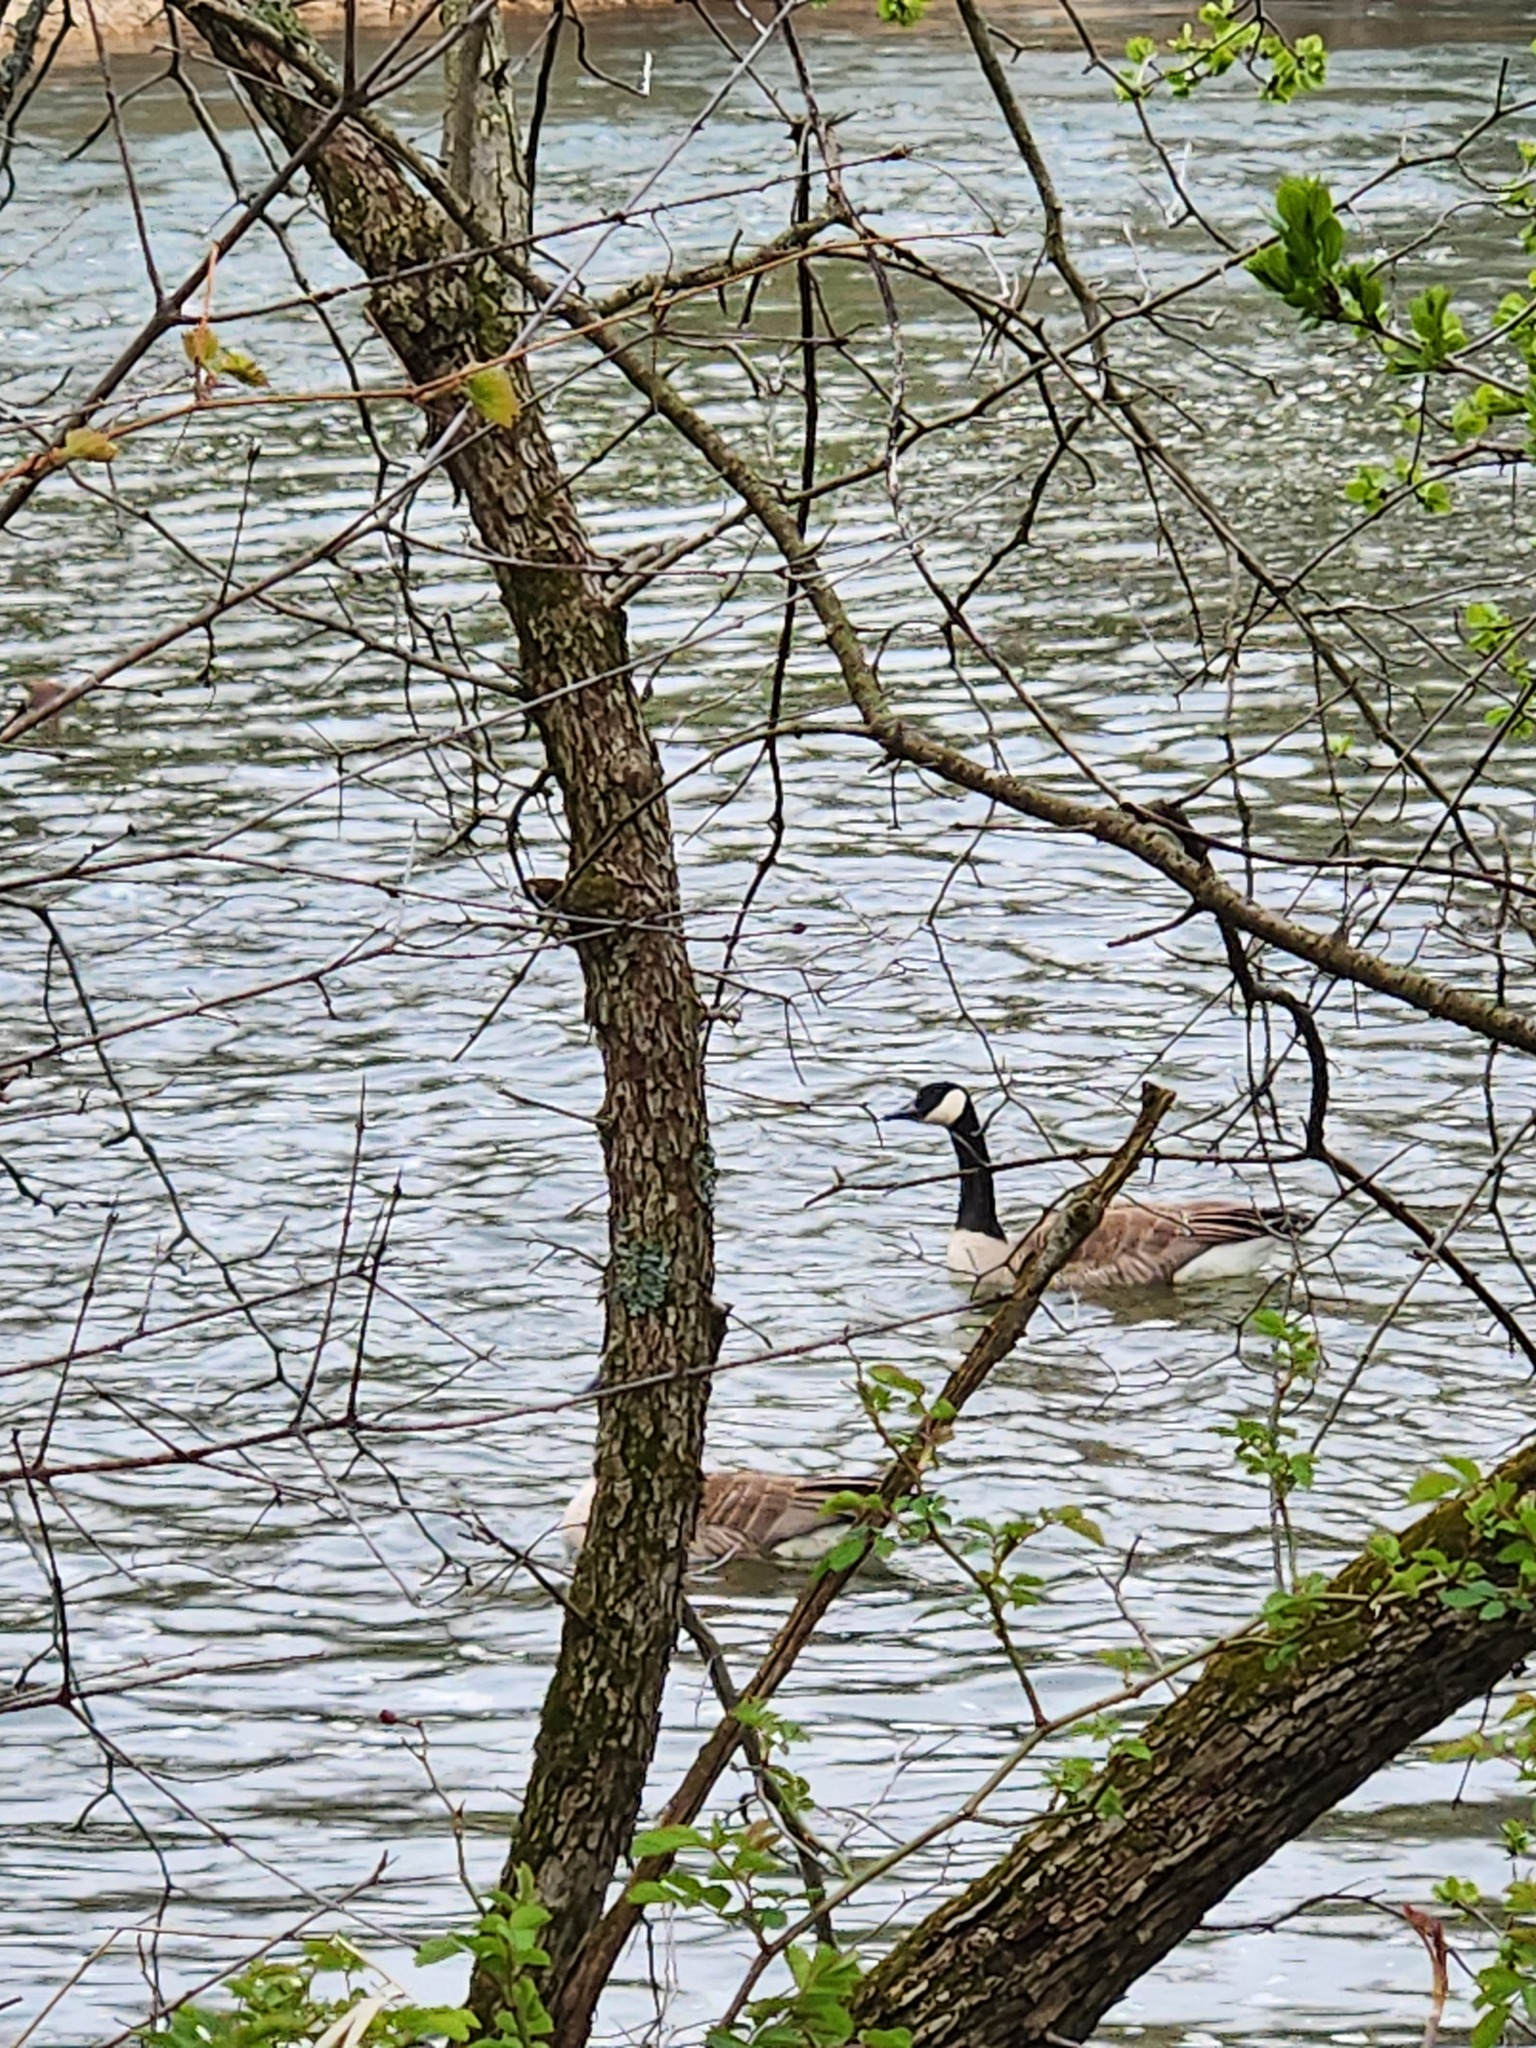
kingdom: Animalia
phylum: Chordata
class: Aves
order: Anseriformes
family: Anatidae
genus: Branta
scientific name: Branta canadensis
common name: Canada goose
